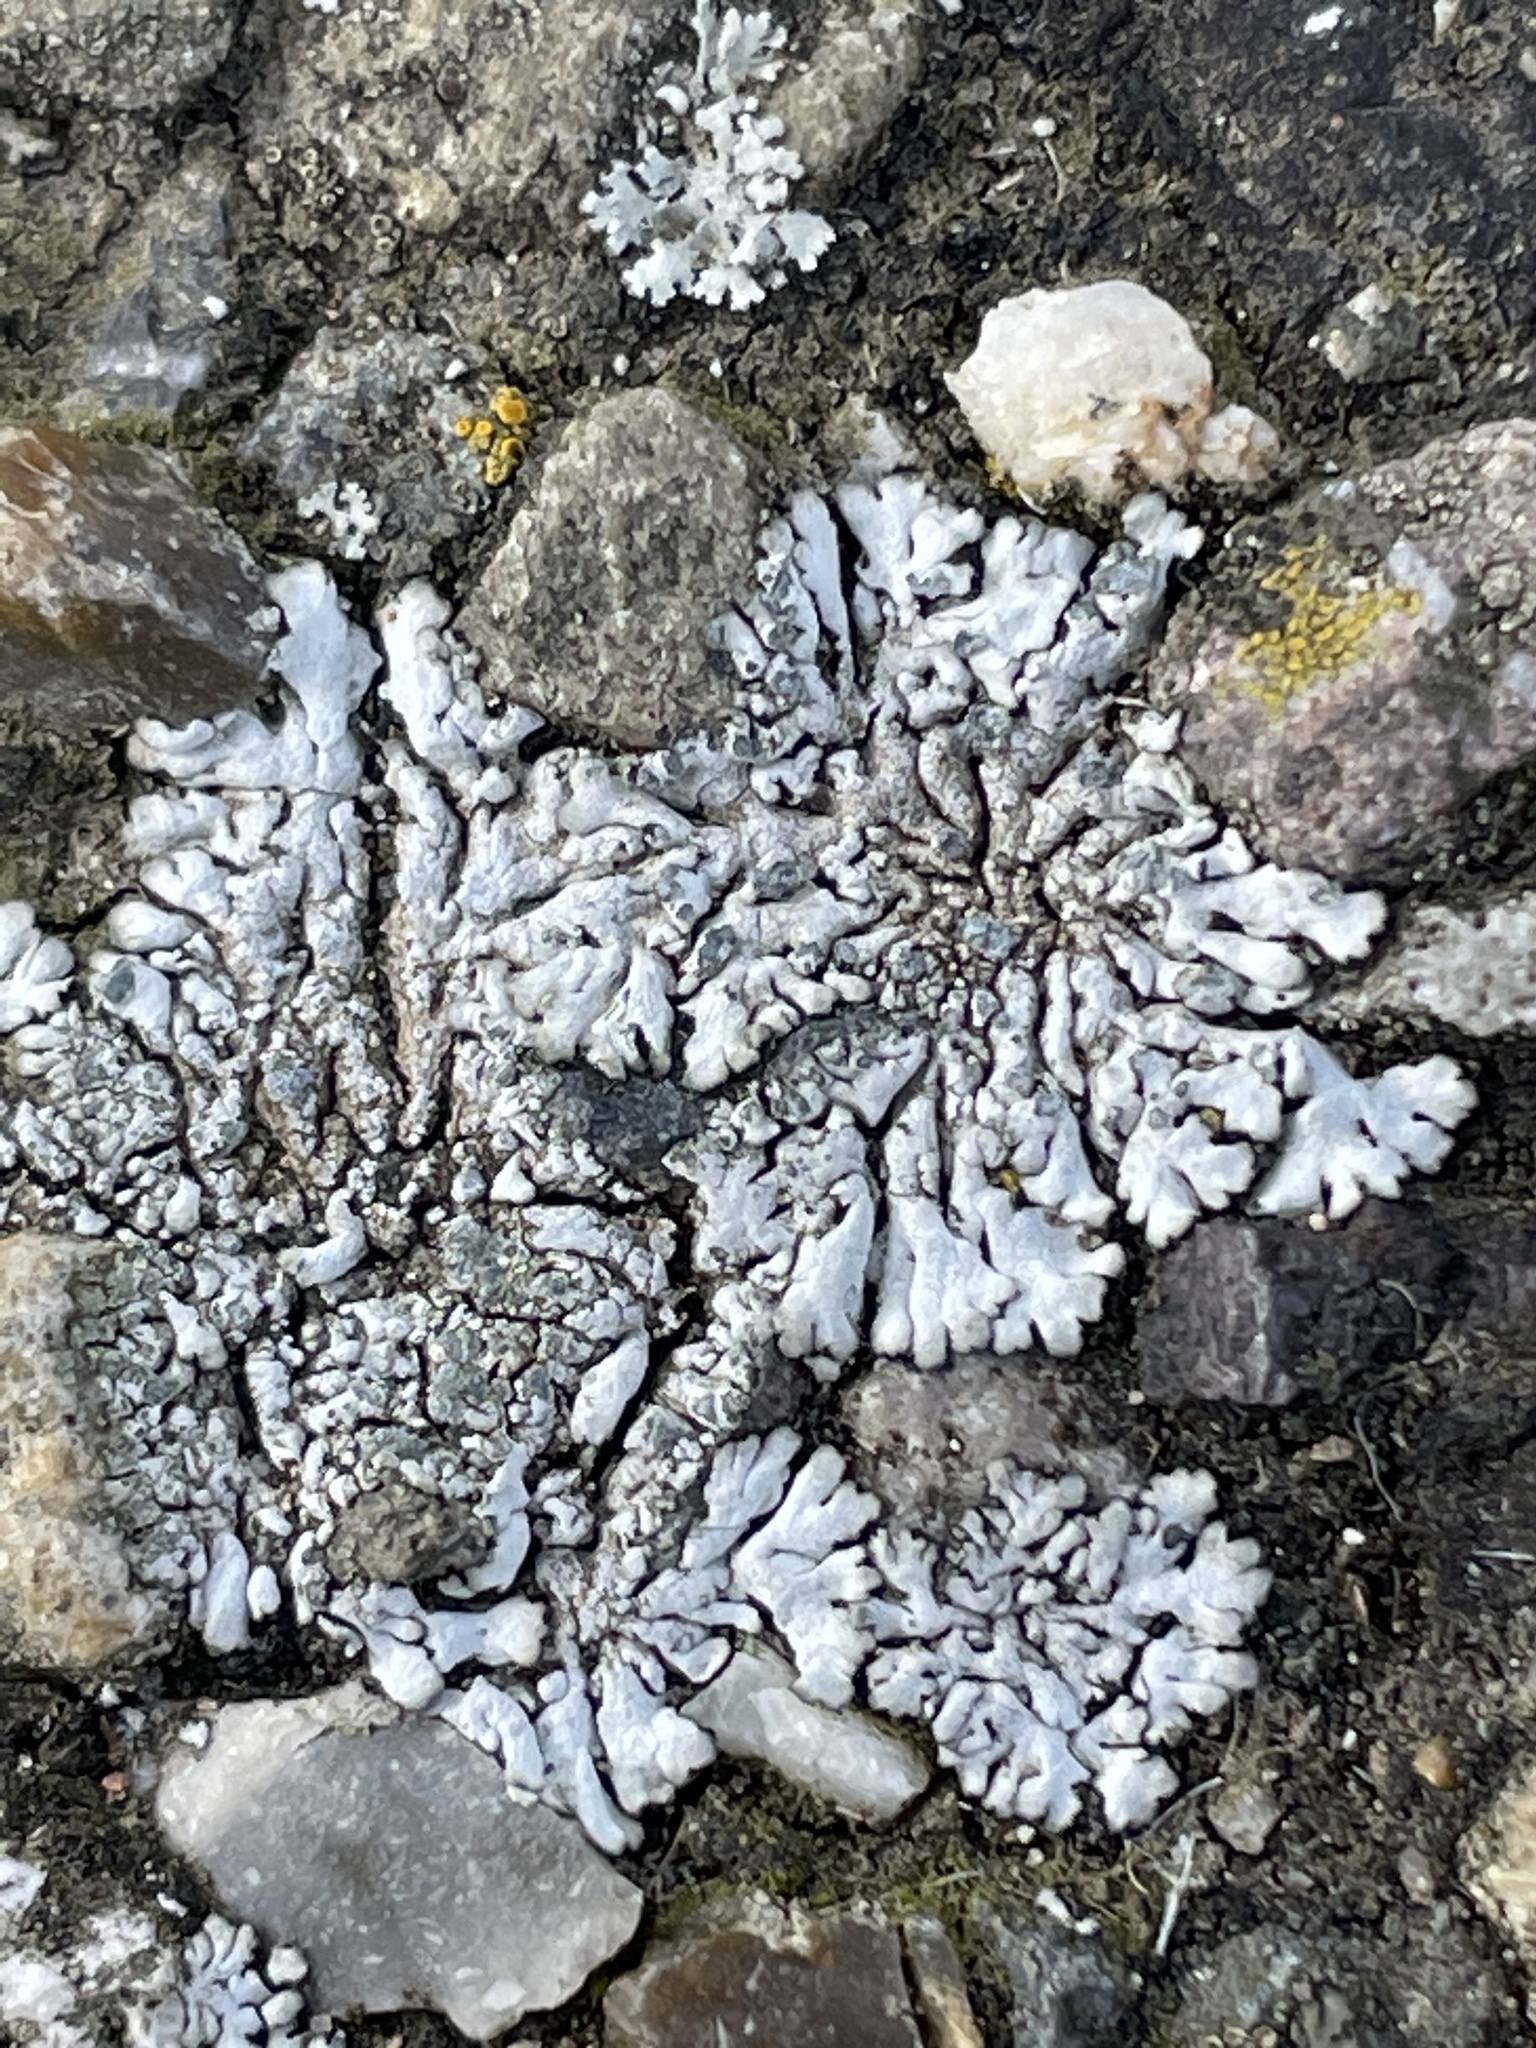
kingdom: Fungi
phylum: Ascomycota
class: Lecanoromycetes
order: Caliciales
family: Physciaceae
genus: Physcia
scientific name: Physcia caesia
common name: Blue-gray rosette lichen
